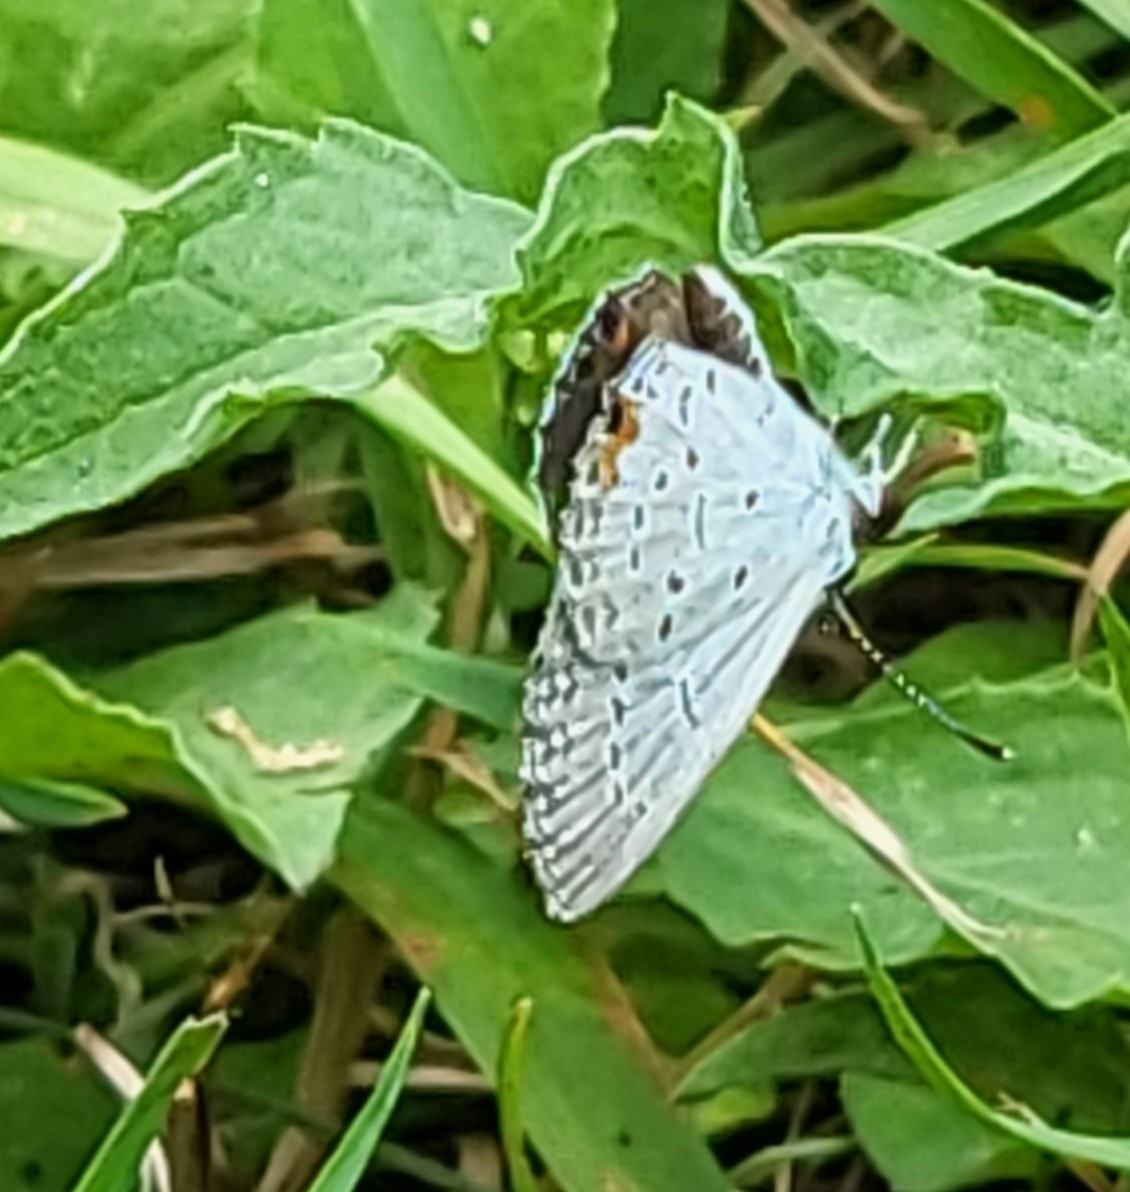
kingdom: Animalia
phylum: Arthropoda
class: Insecta
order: Lepidoptera
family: Lycaenidae
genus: Elkalyce
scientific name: Elkalyce comyntas
